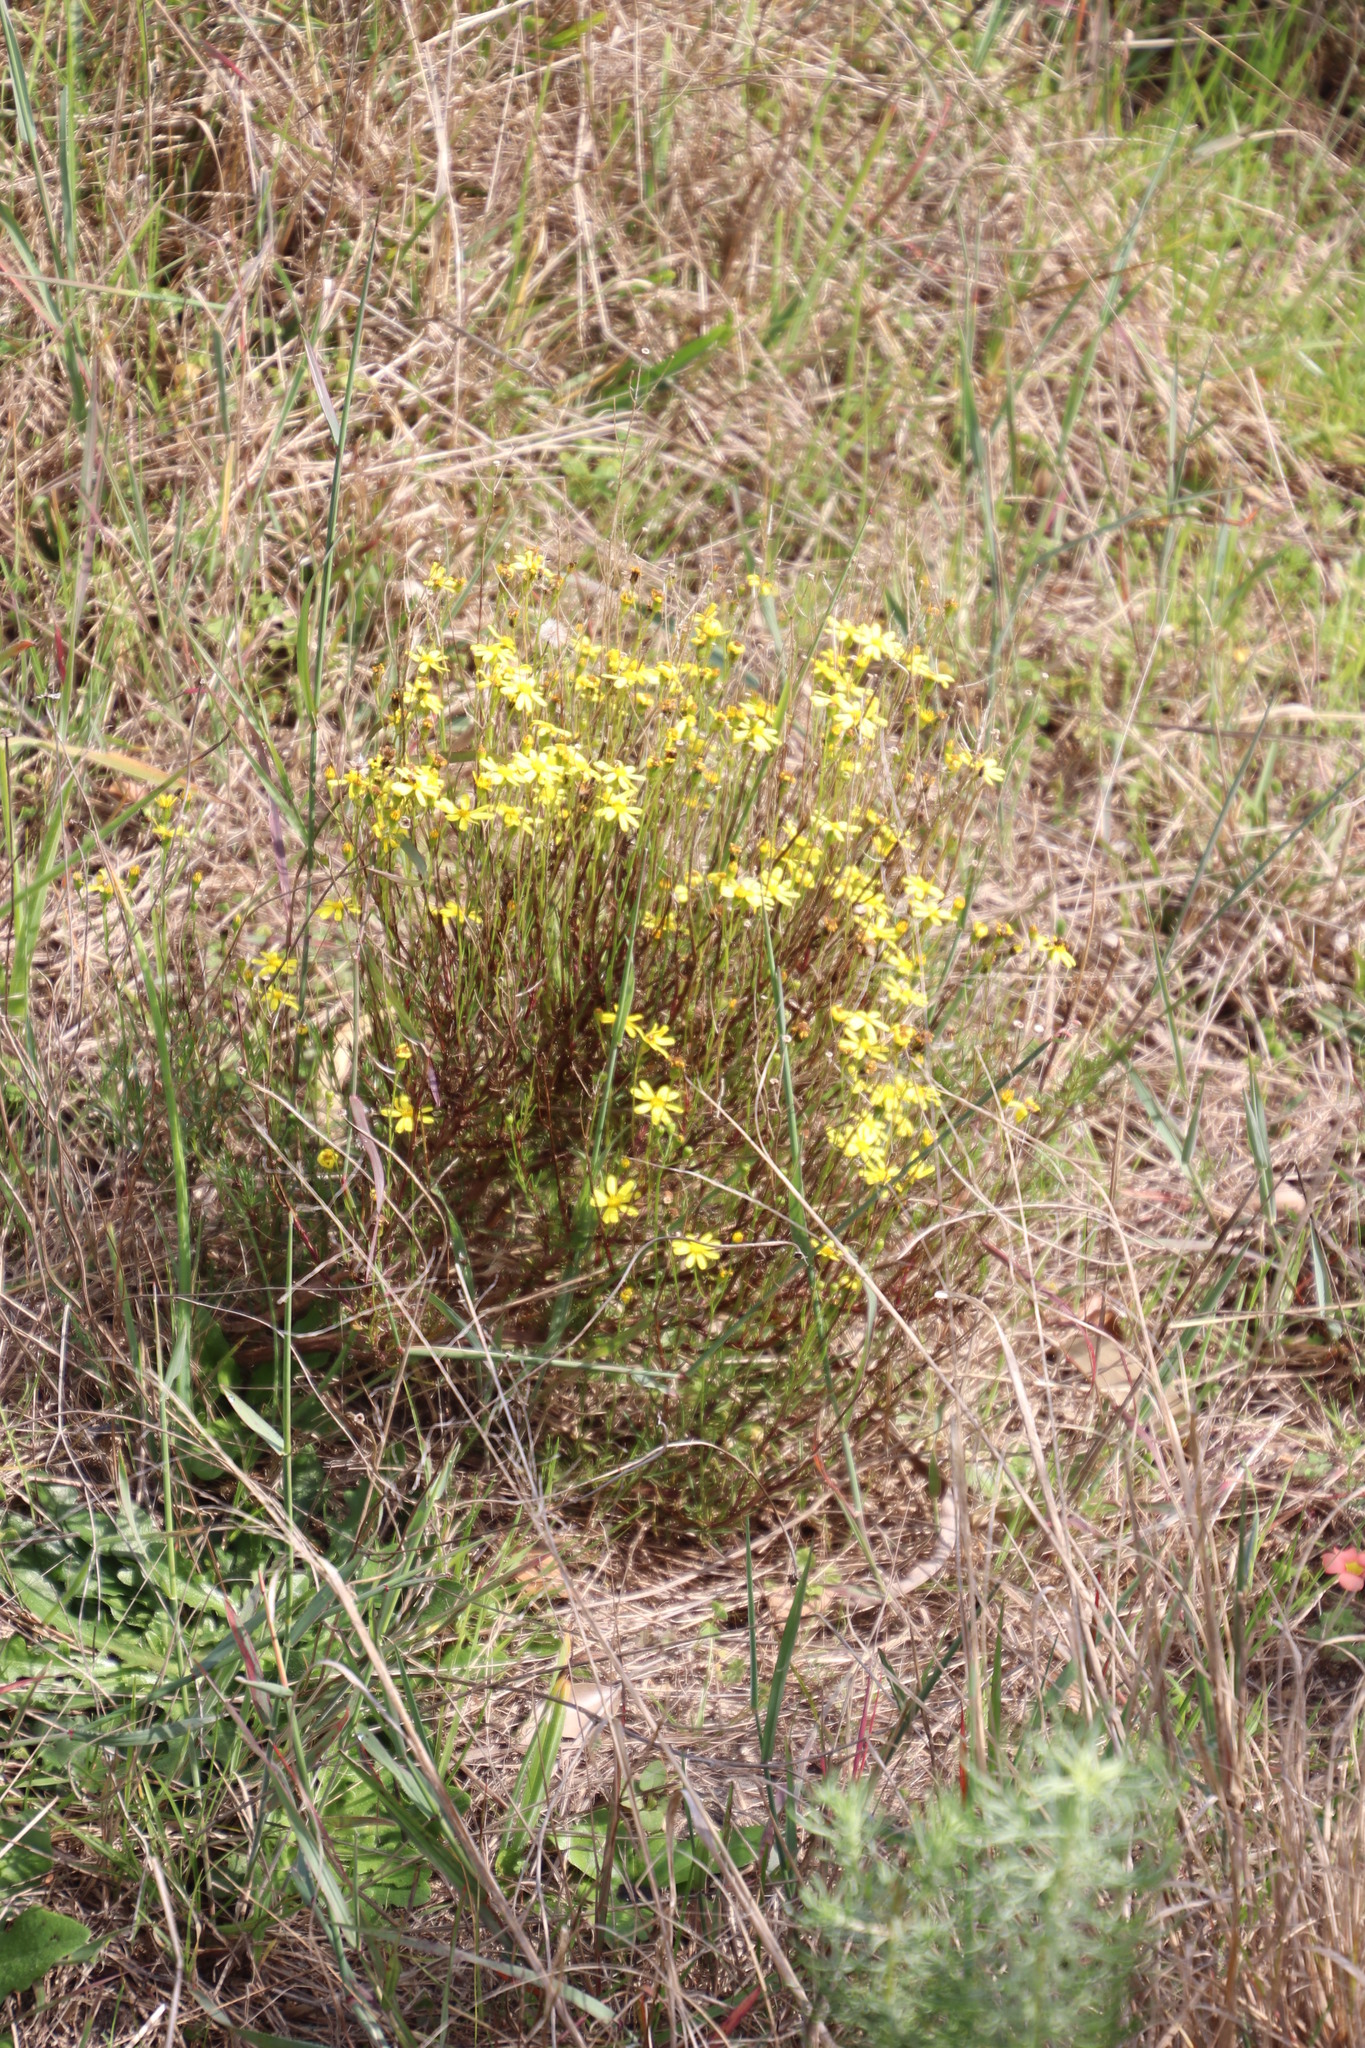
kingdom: Plantae
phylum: Tracheophyta
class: Magnoliopsida
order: Asterales
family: Asteraceae
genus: Senecio
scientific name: Senecio burchellii
